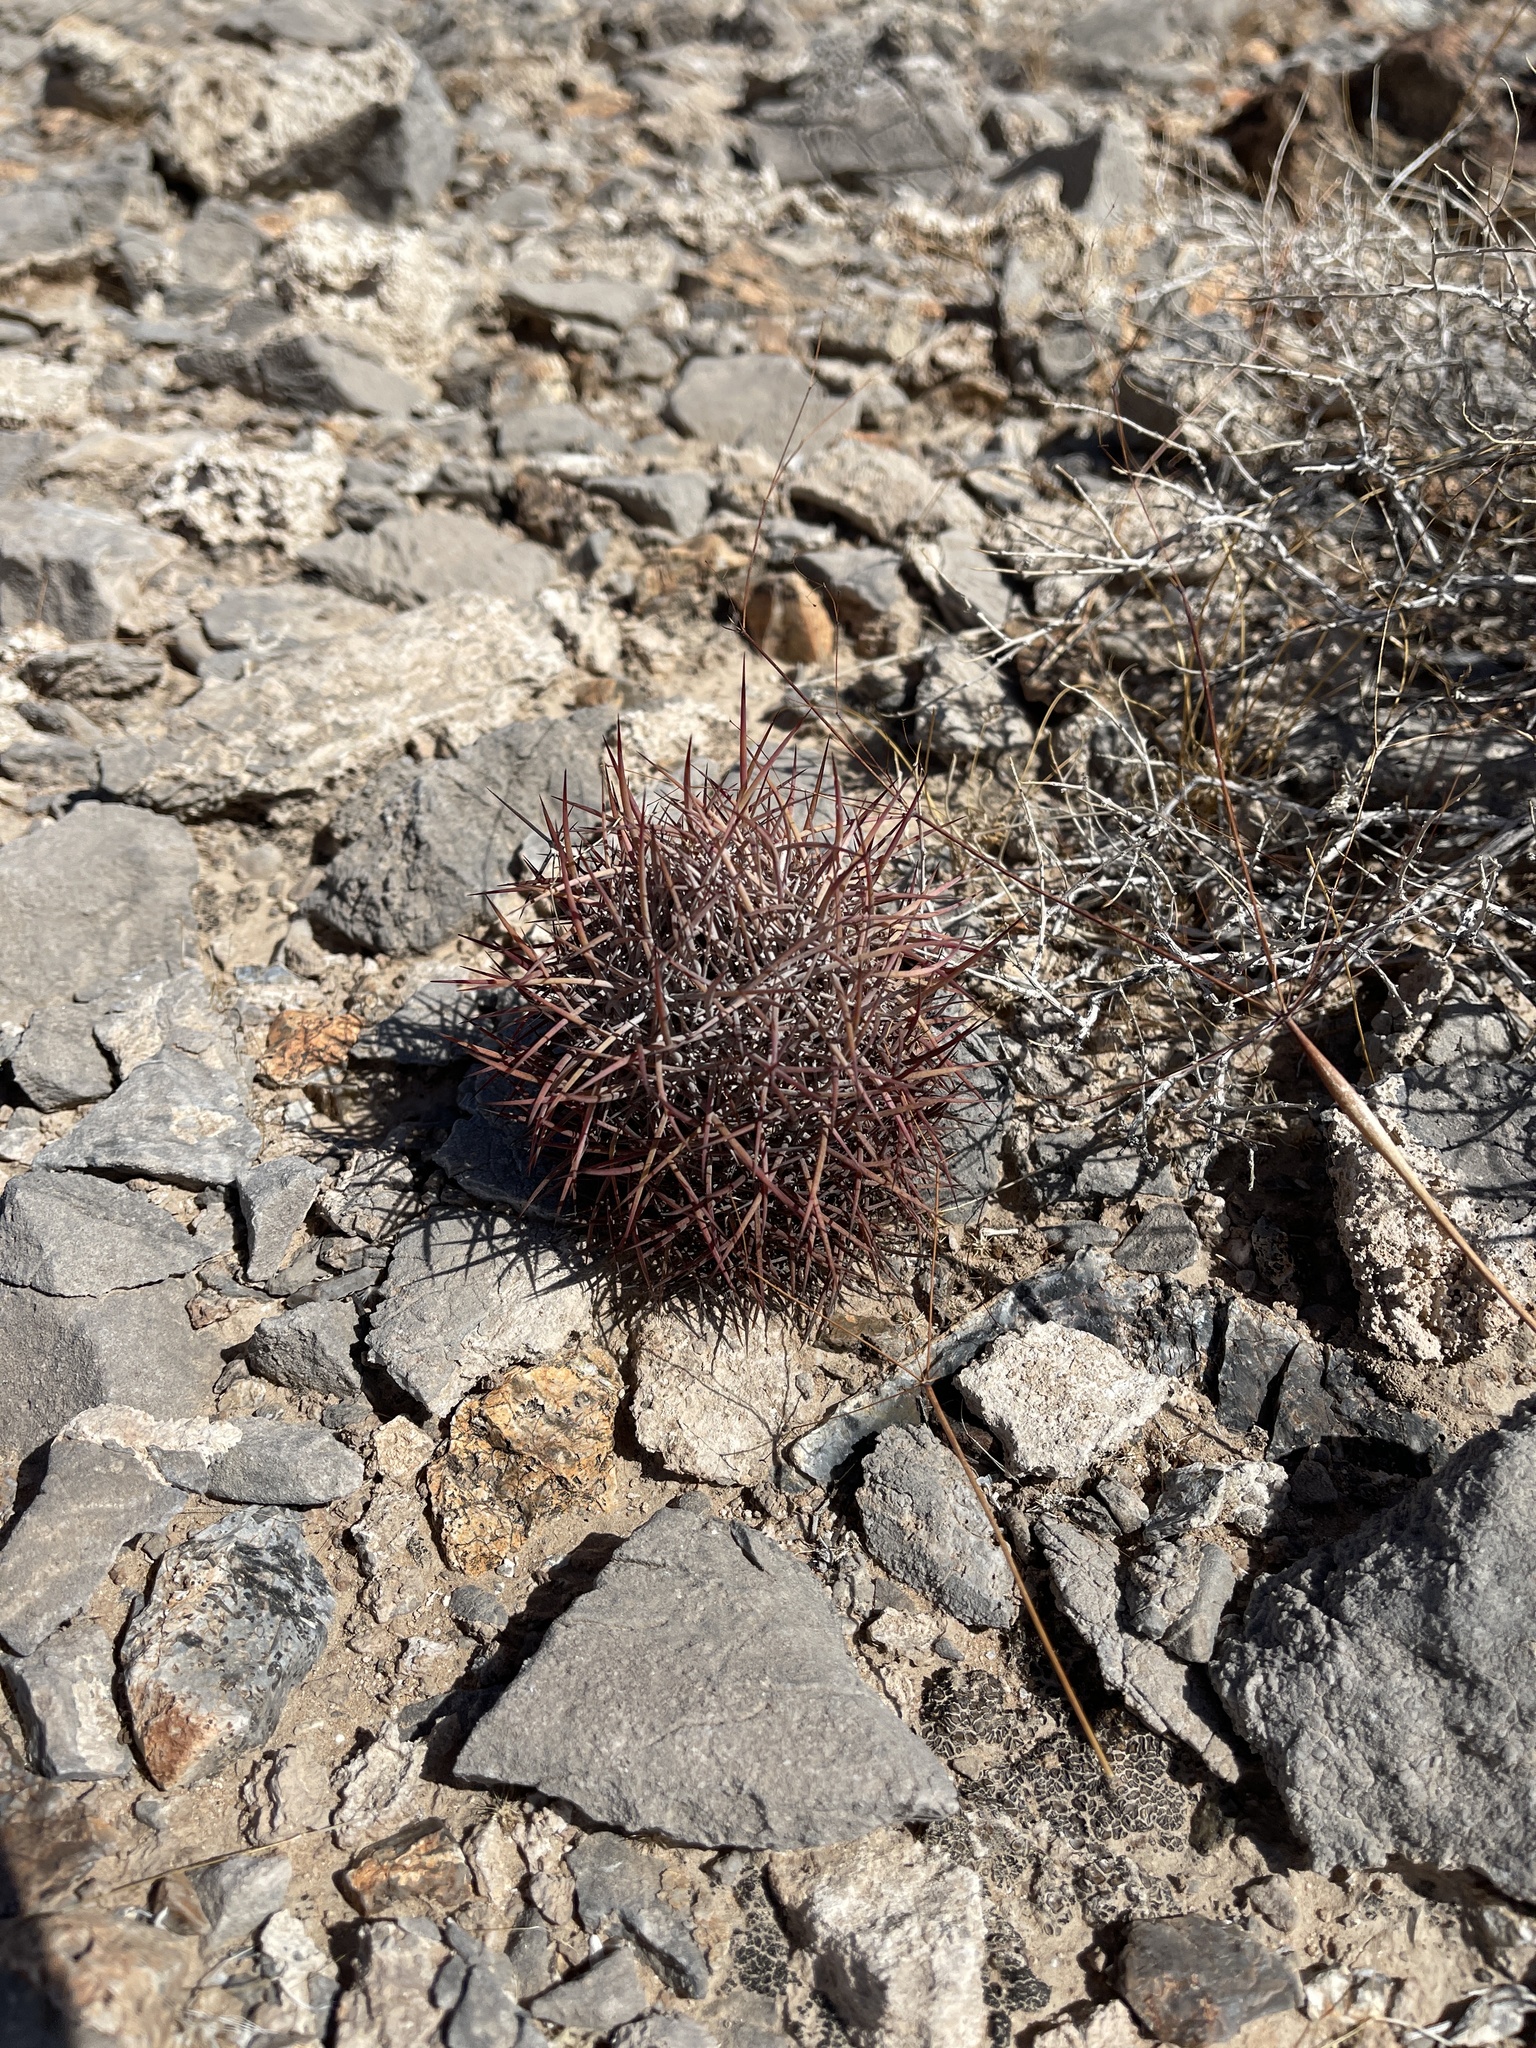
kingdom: Plantae
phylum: Tracheophyta
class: Magnoliopsida
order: Caryophyllales
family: Cactaceae
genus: Sclerocactus
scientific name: Sclerocactus johnsonii
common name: Eight-spine fishhook cactus
